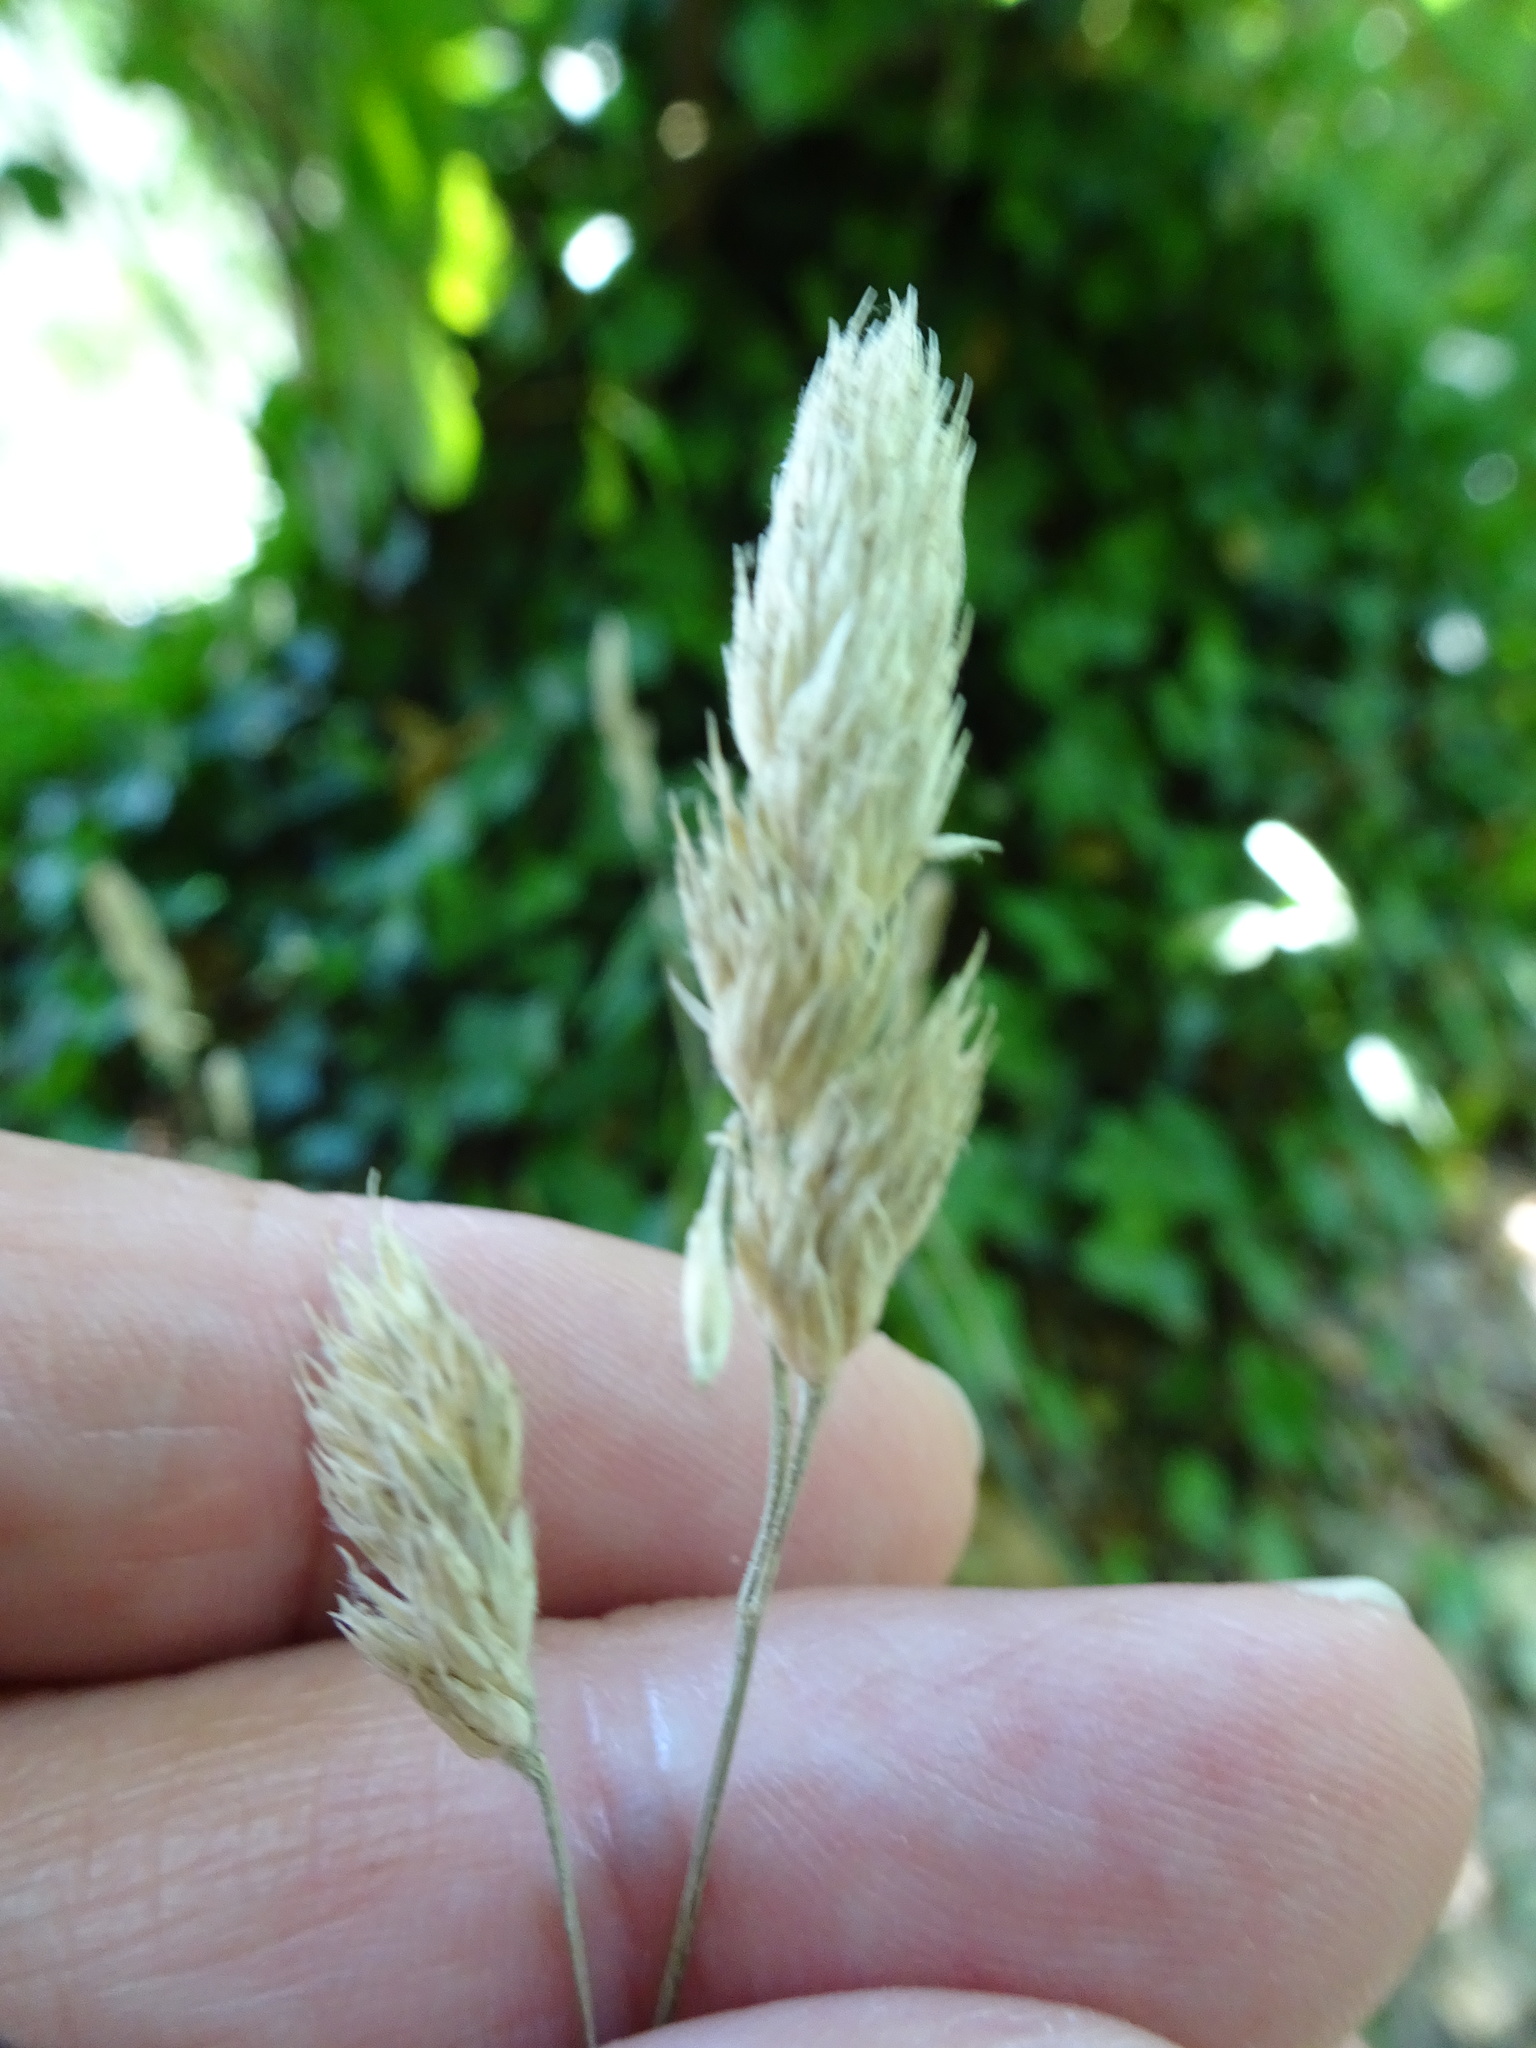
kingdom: Plantae
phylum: Tracheophyta
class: Liliopsida
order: Poales
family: Poaceae
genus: Dactylis
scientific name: Dactylis glomerata
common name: Orchardgrass
